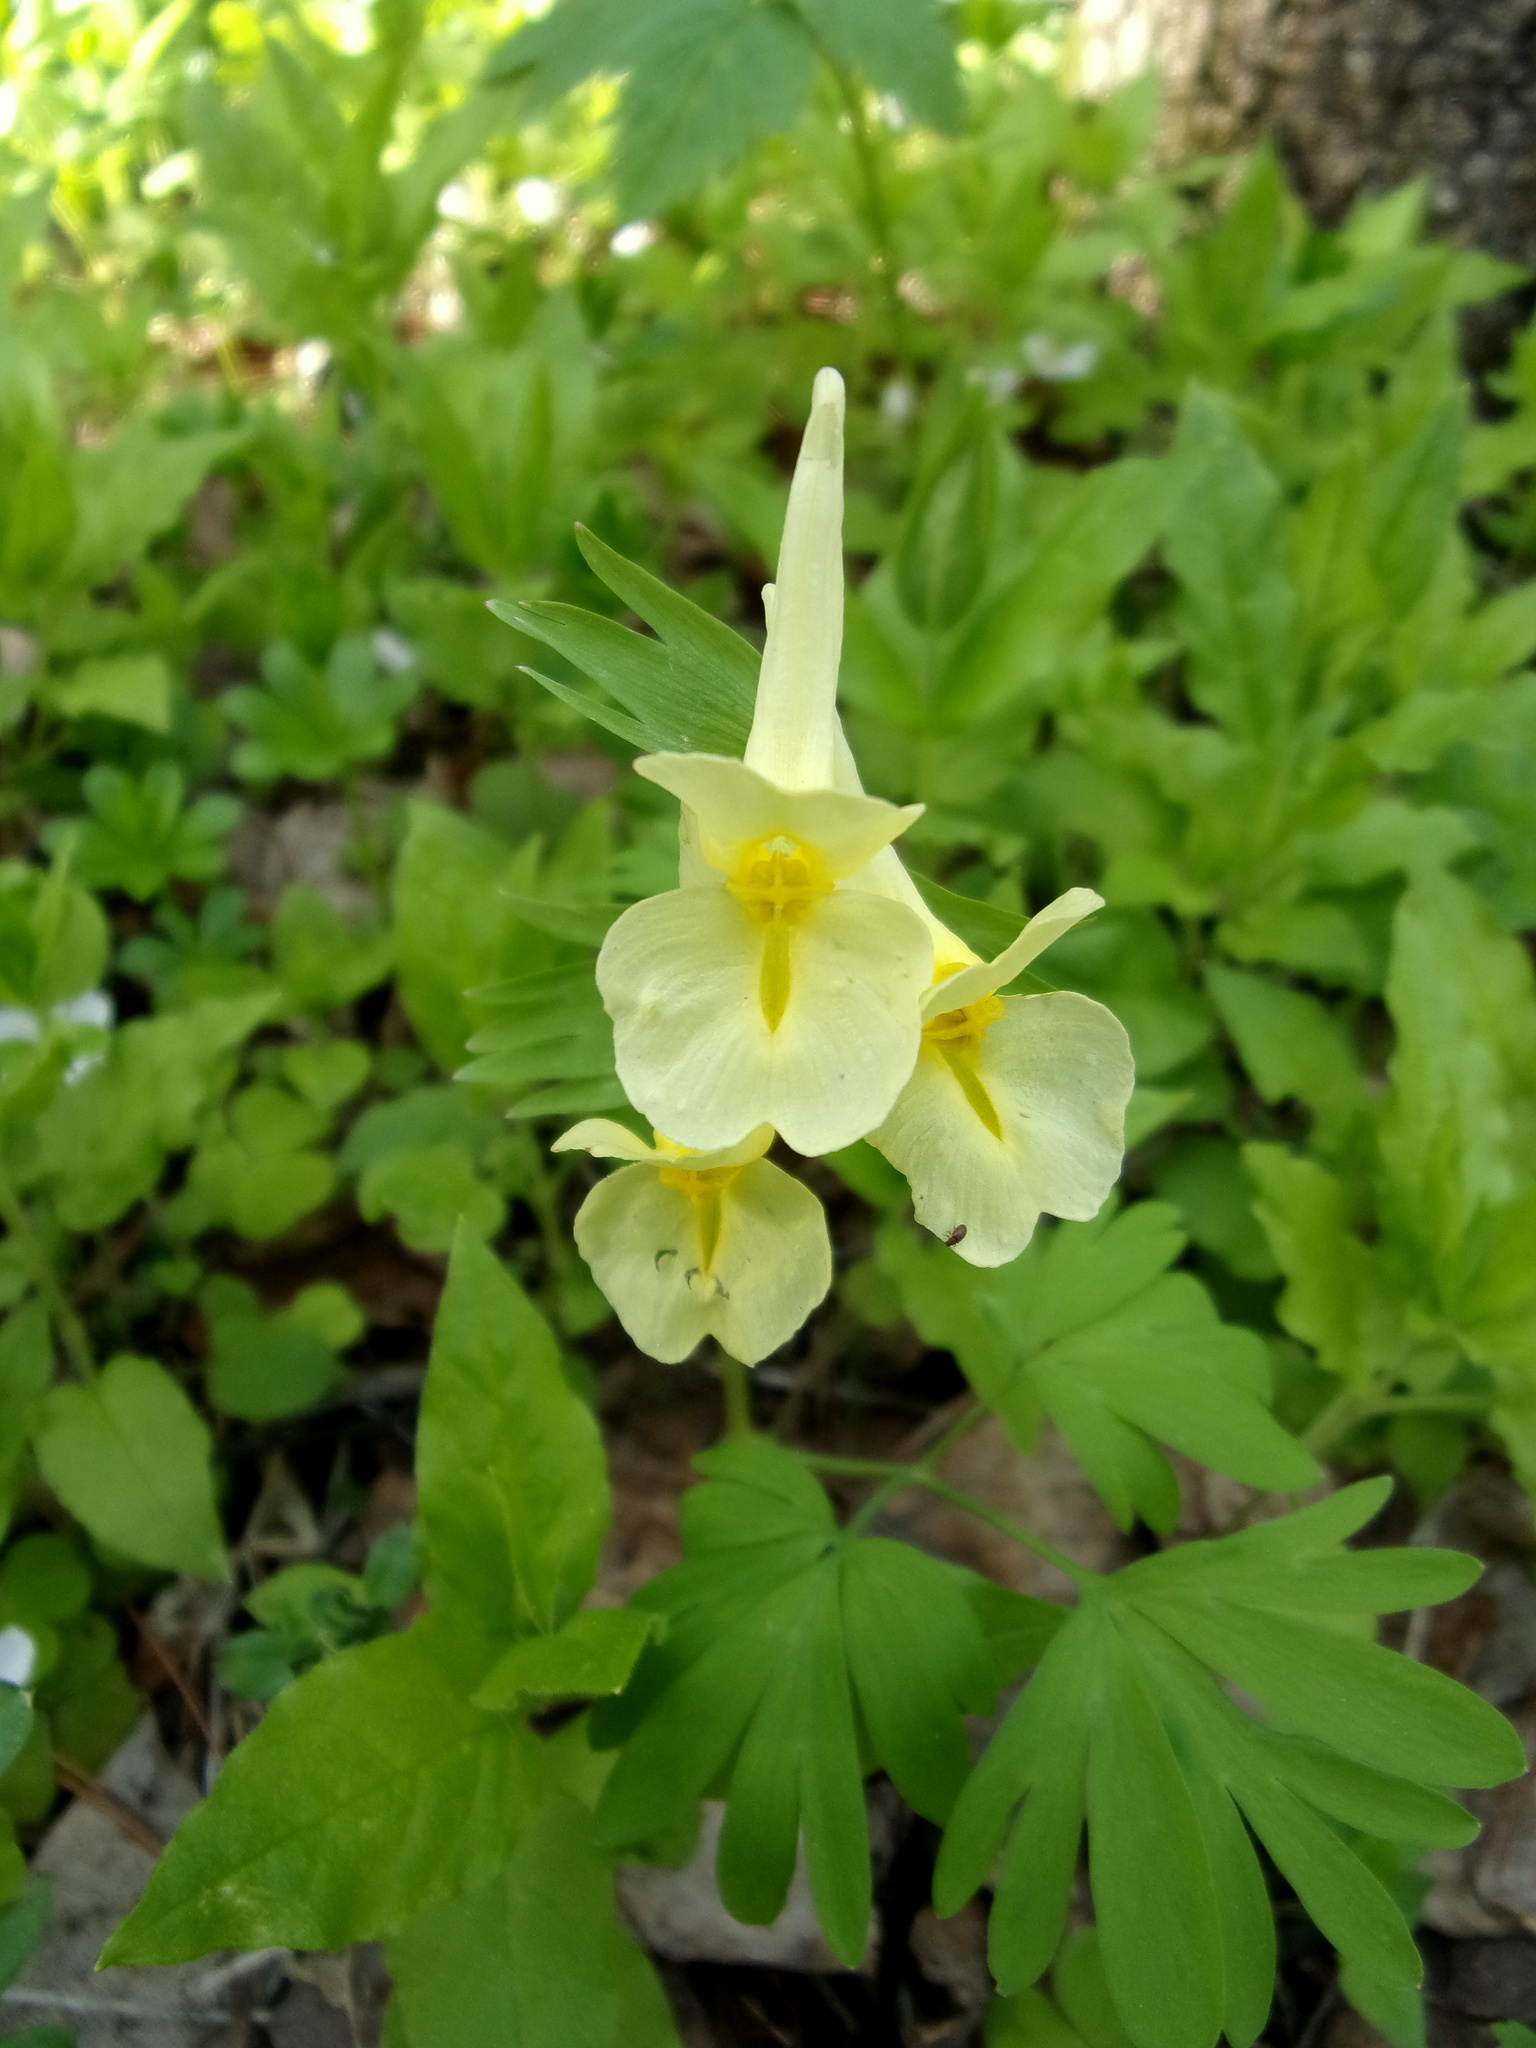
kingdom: Plantae
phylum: Tracheophyta
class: Magnoliopsida
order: Ranunculales
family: Papaveraceae
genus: Corydalis
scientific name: Corydalis bracteata
